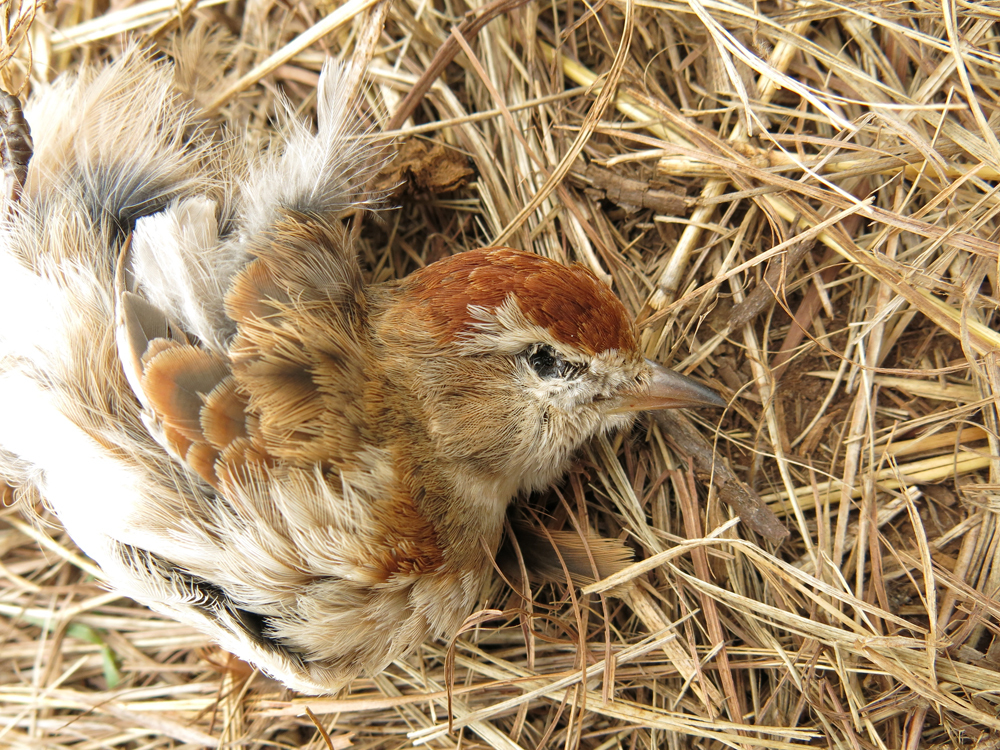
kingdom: Animalia
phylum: Chordata
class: Aves
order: Passeriformes
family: Alaudidae
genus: Calandrella
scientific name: Calandrella cinerea
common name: Red-capped lark
